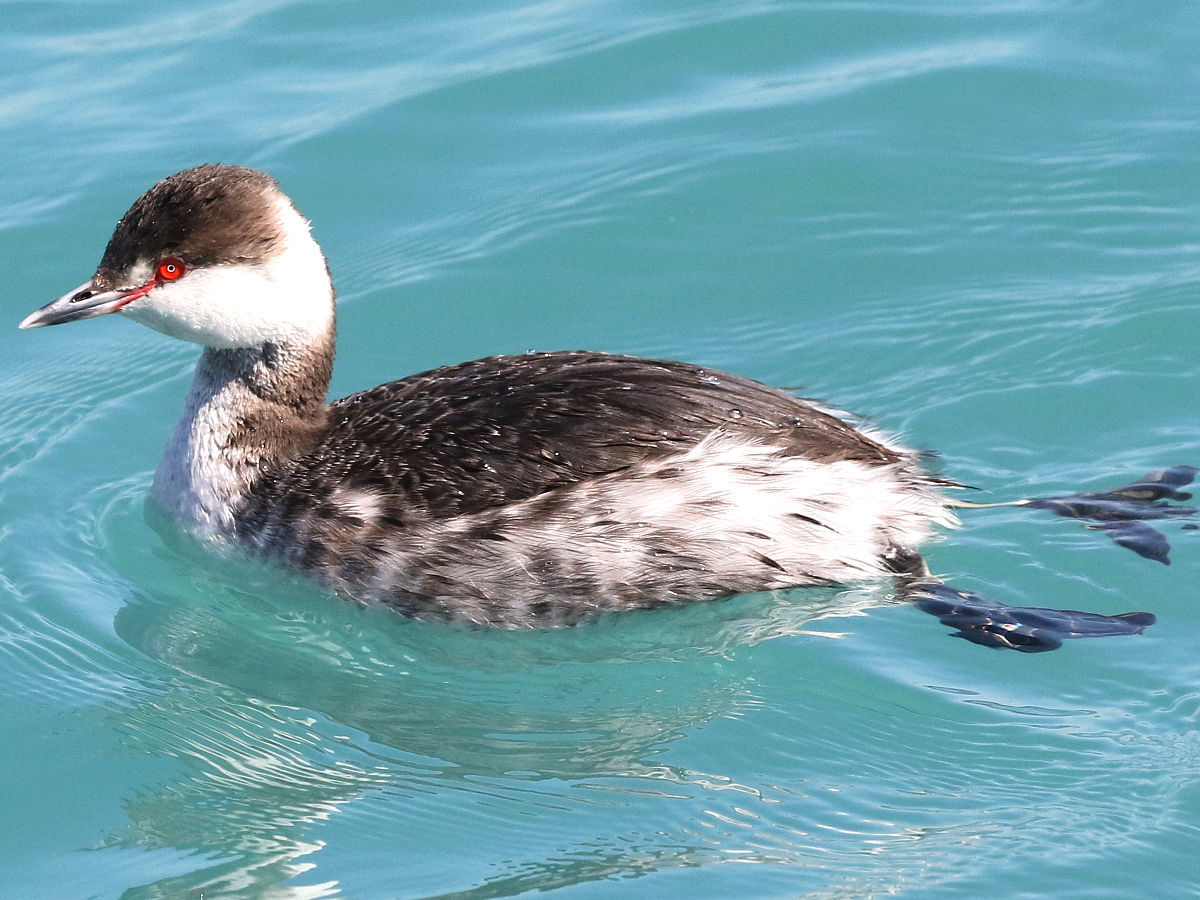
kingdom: Animalia
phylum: Chordata
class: Aves
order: Podicipediformes
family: Podicipedidae
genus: Podiceps
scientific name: Podiceps auritus
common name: Horned grebe
